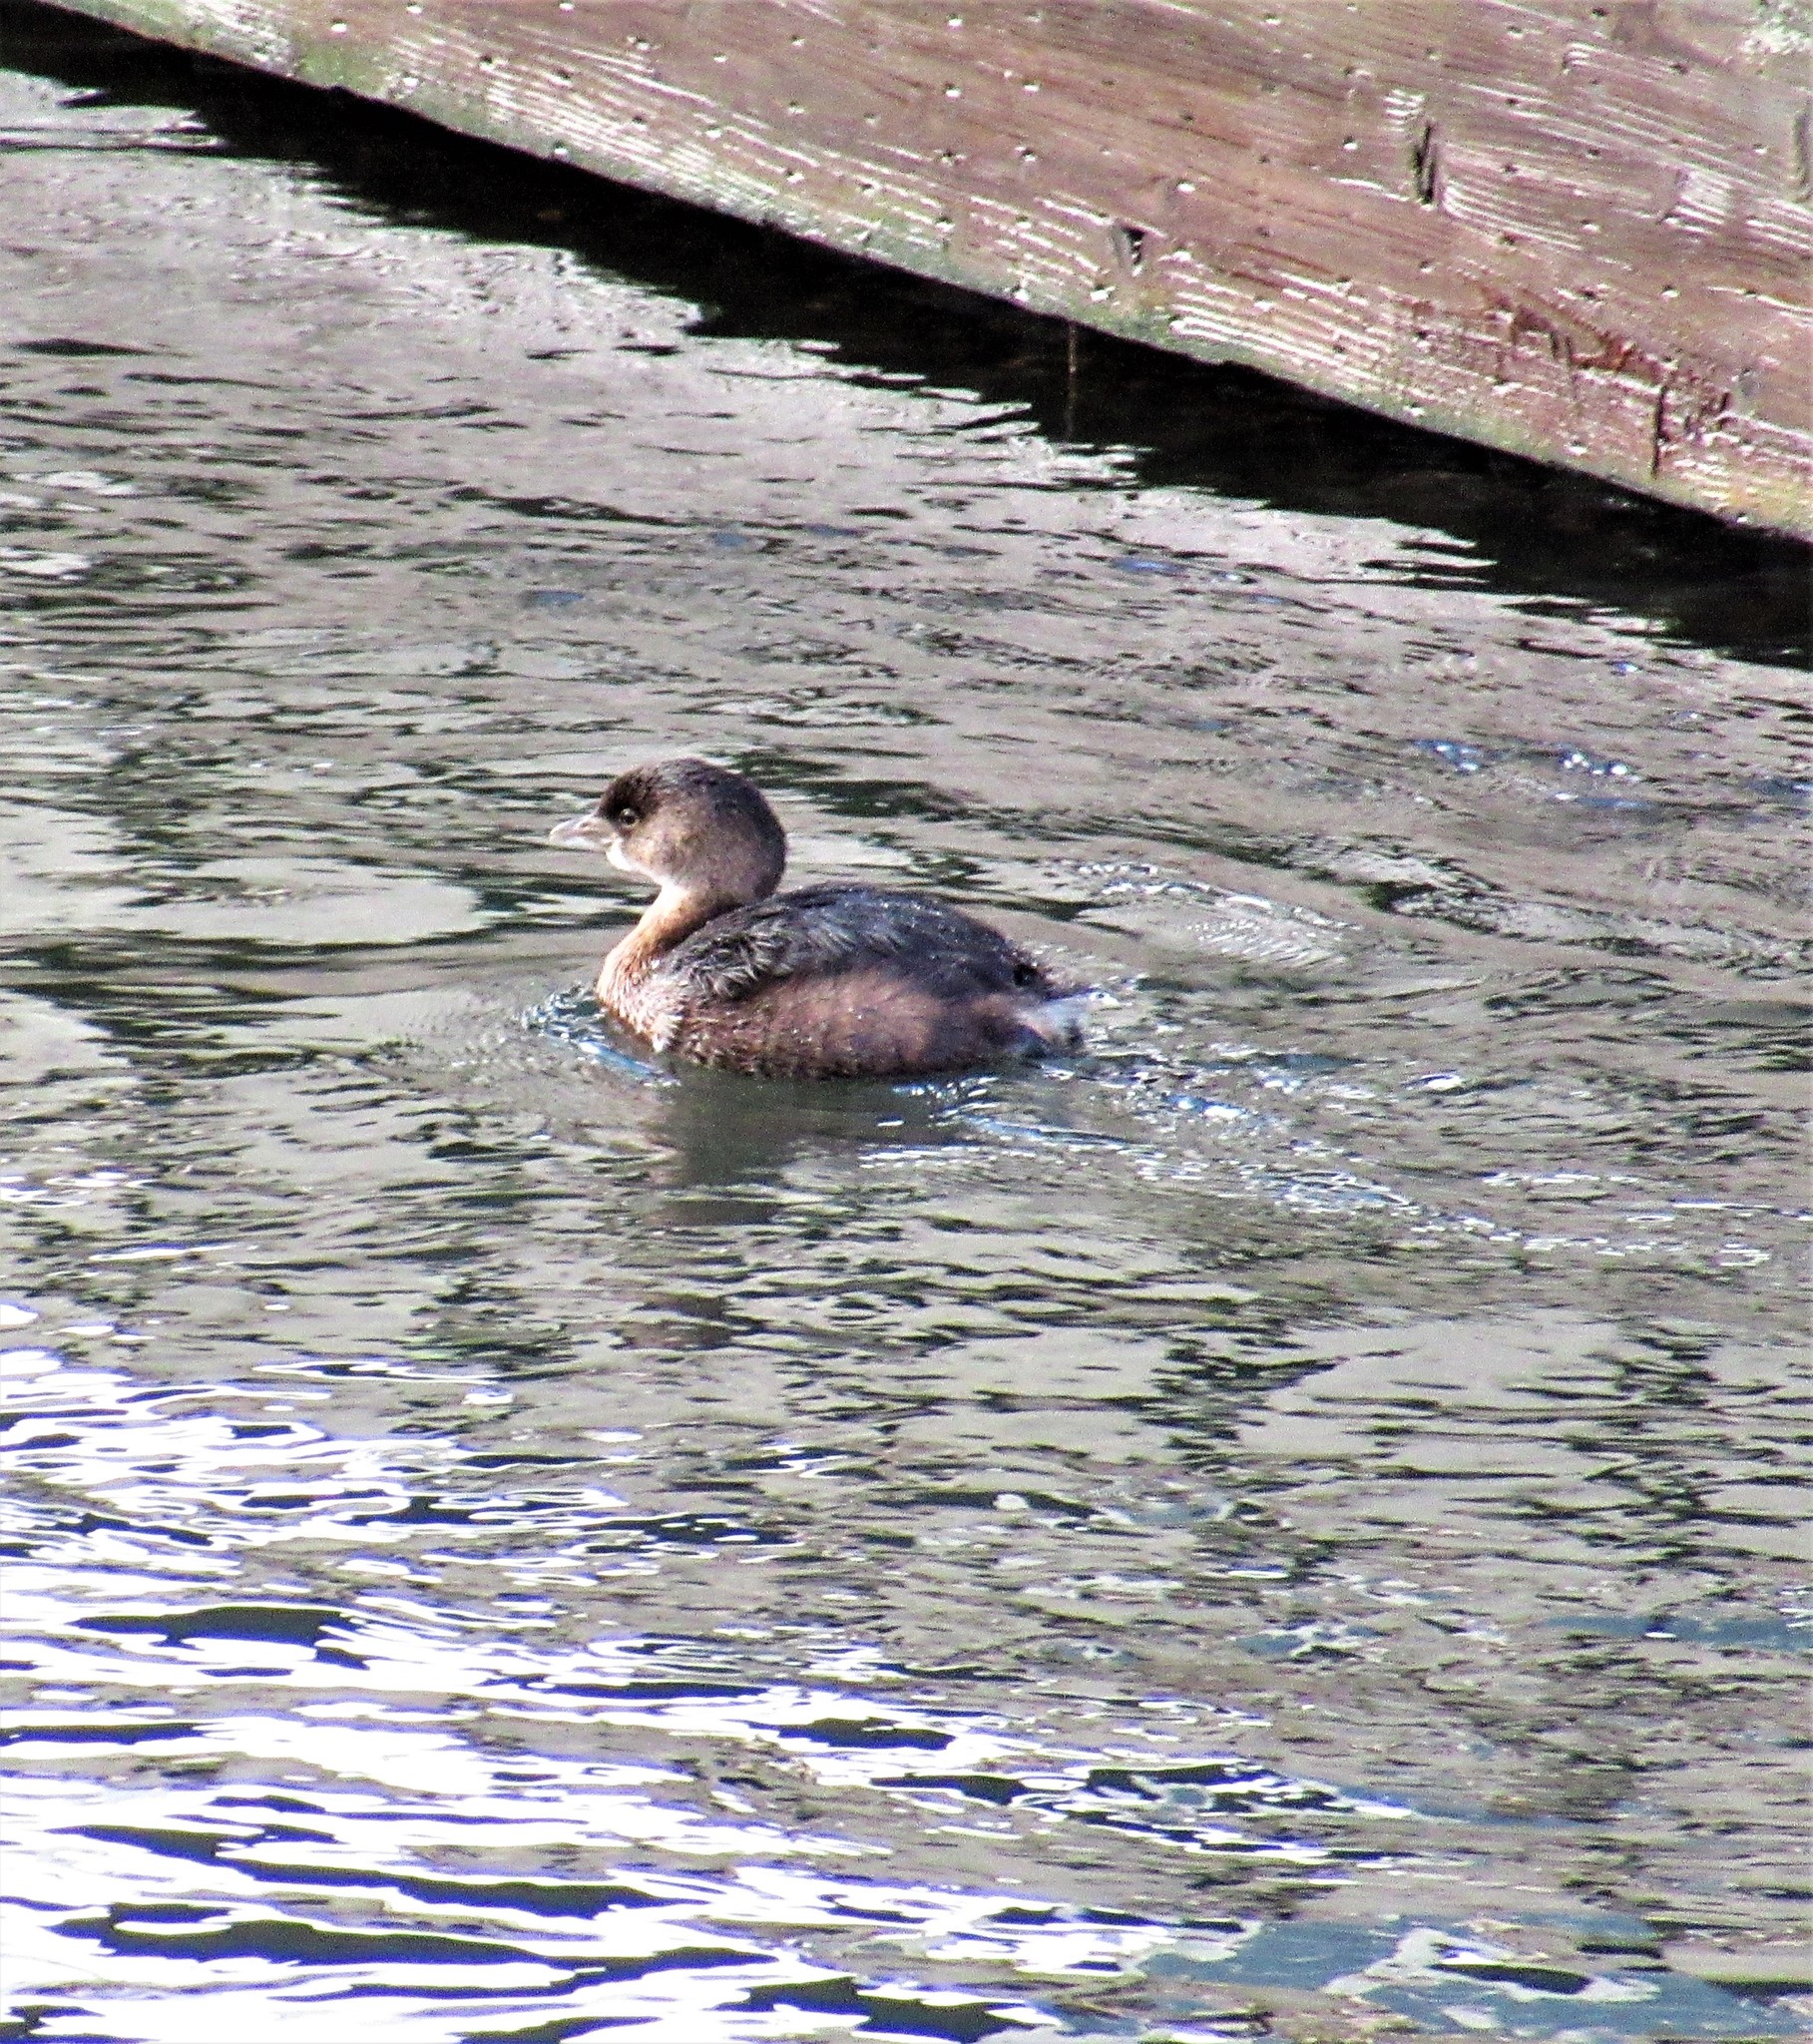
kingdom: Animalia
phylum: Chordata
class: Aves
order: Podicipediformes
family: Podicipedidae
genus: Podilymbus
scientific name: Podilymbus podiceps
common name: Pied-billed grebe
